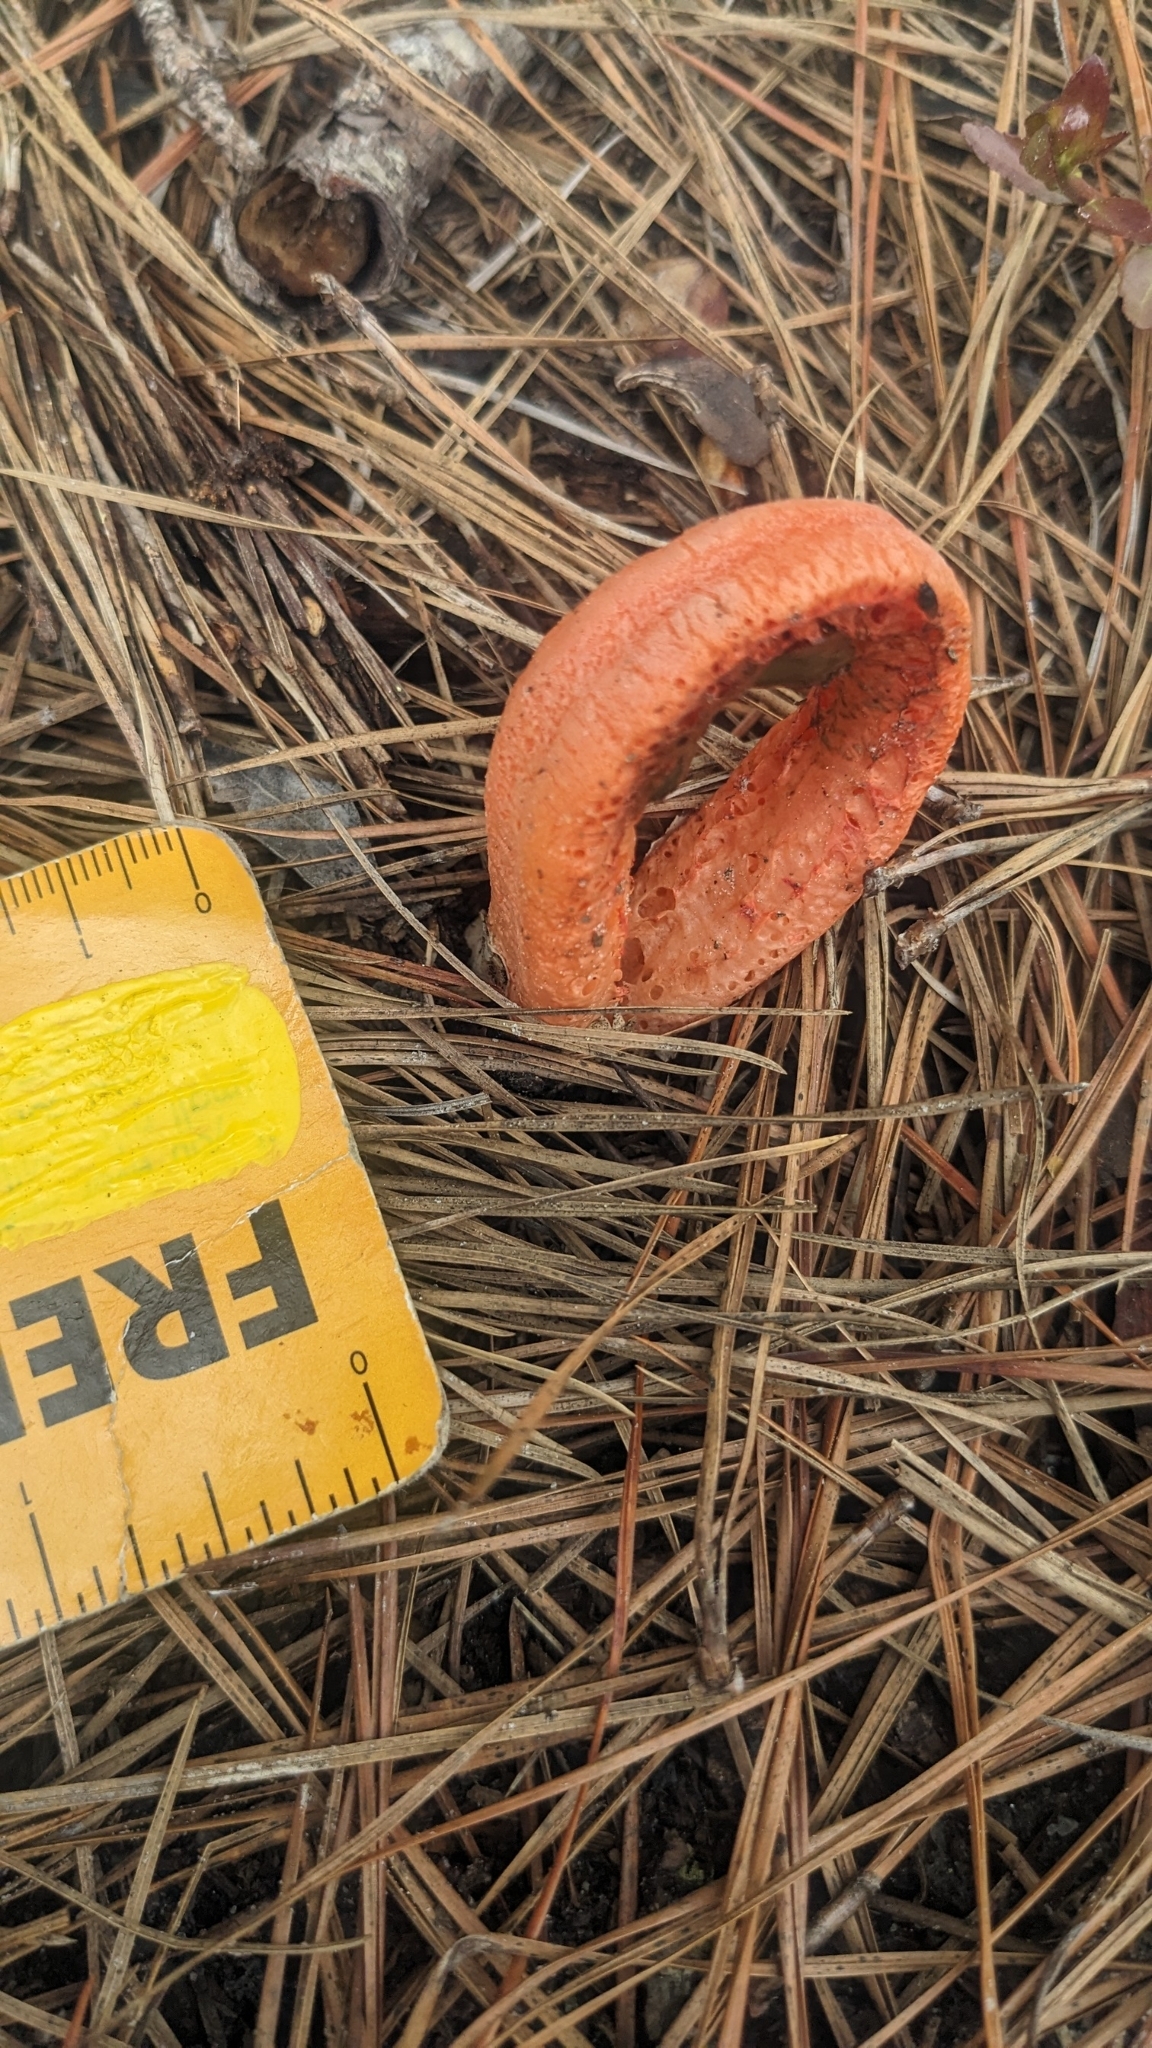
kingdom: Fungi
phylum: Basidiomycota
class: Agaricomycetes
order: Phallales
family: Phallaceae
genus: Clathrus
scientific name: Clathrus columnatus
